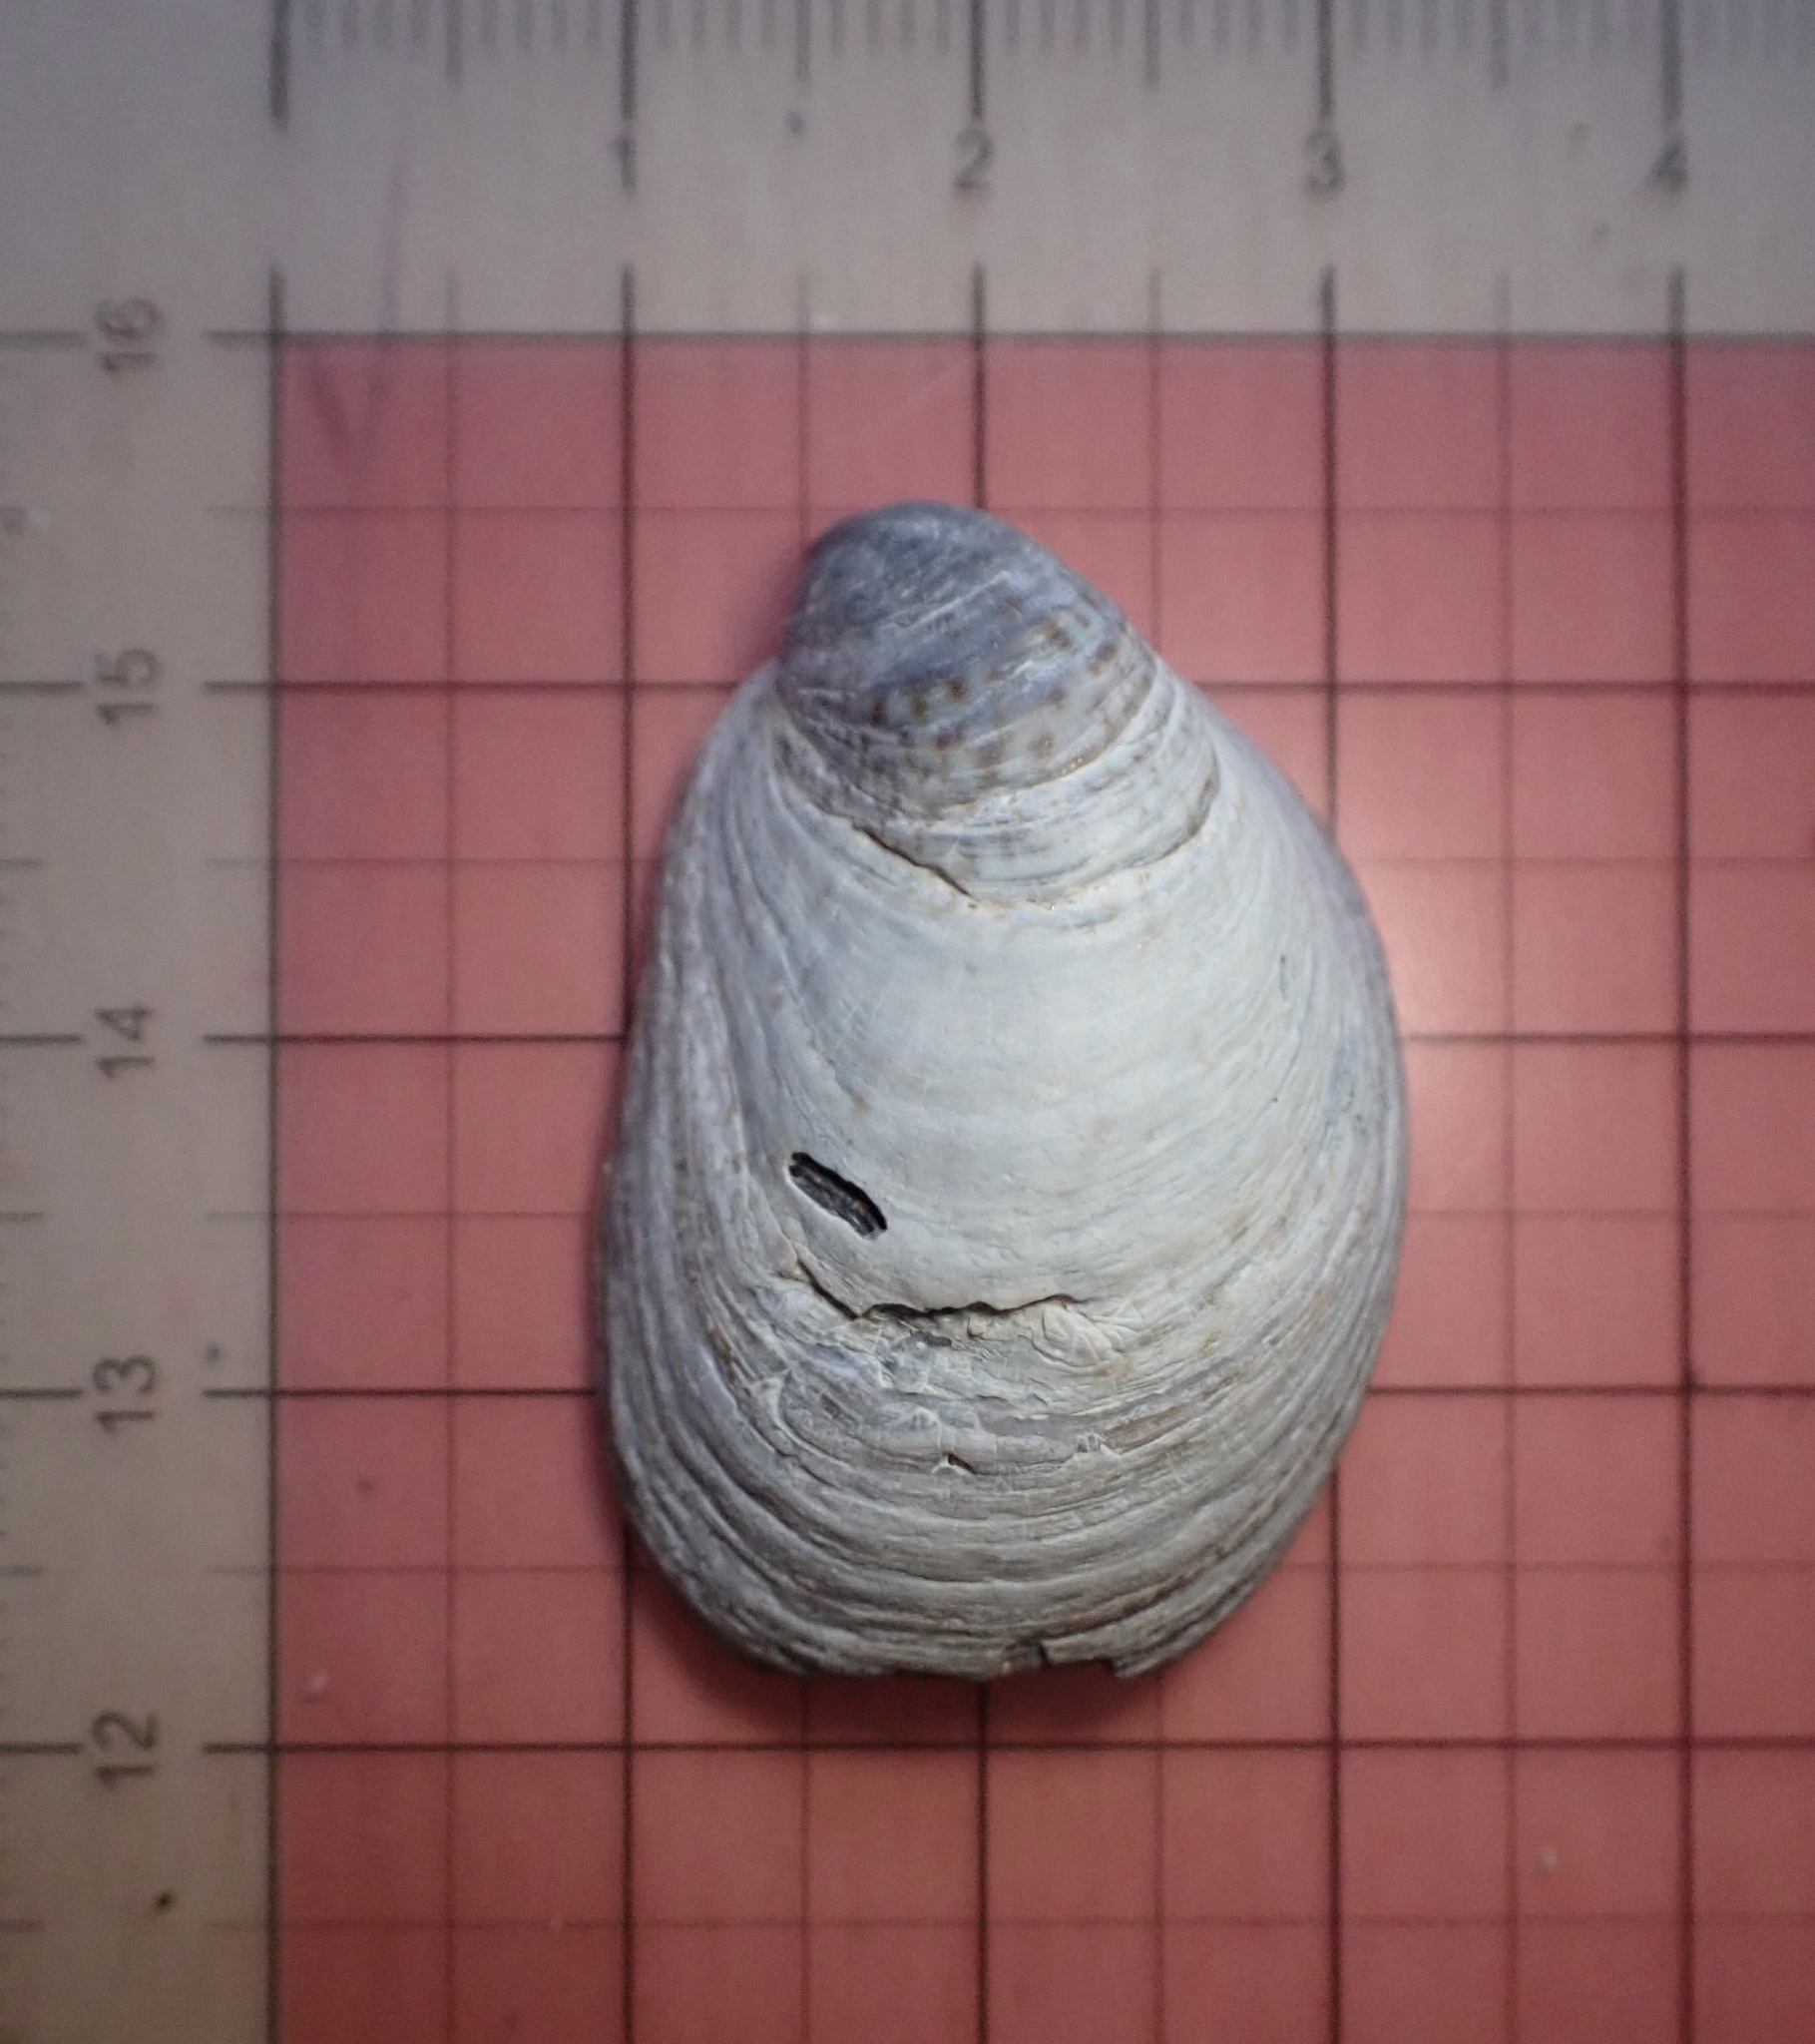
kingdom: Animalia
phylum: Mollusca
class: Gastropoda
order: Littorinimorpha
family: Calyptraeidae
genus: Crepidula
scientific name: Crepidula onyx
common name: Onyx slippersnail
